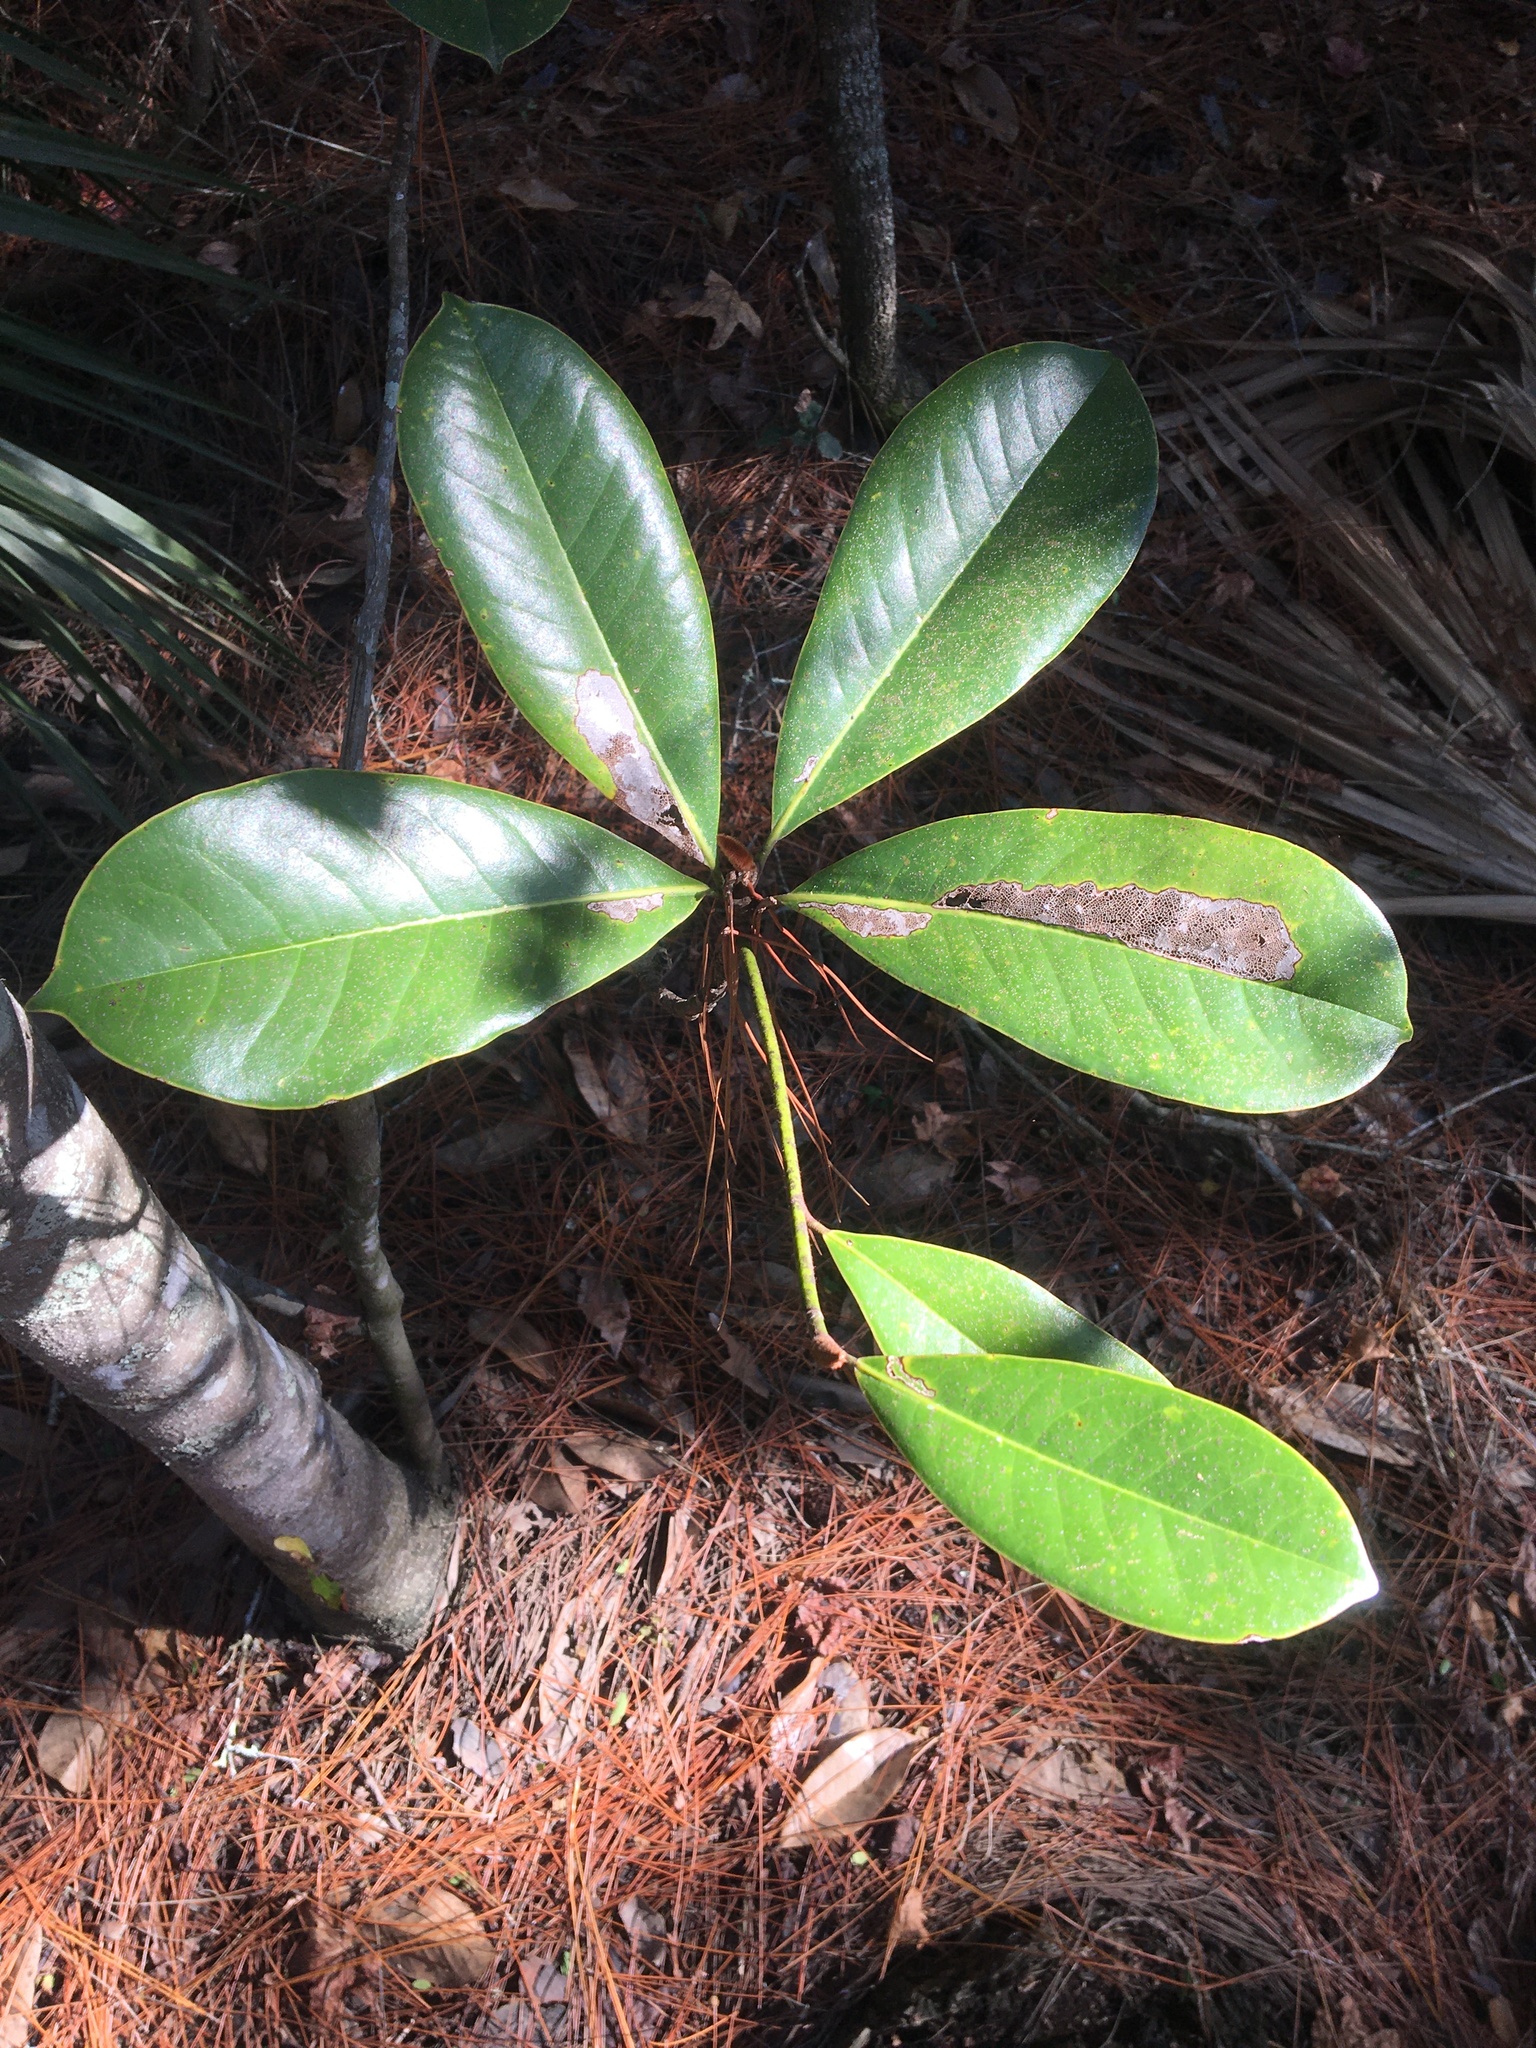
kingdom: Plantae
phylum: Tracheophyta
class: Magnoliopsida
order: Magnoliales
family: Magnoliaceae
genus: Magnolia
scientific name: Magnolia grandiflora
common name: Southern magnolia
